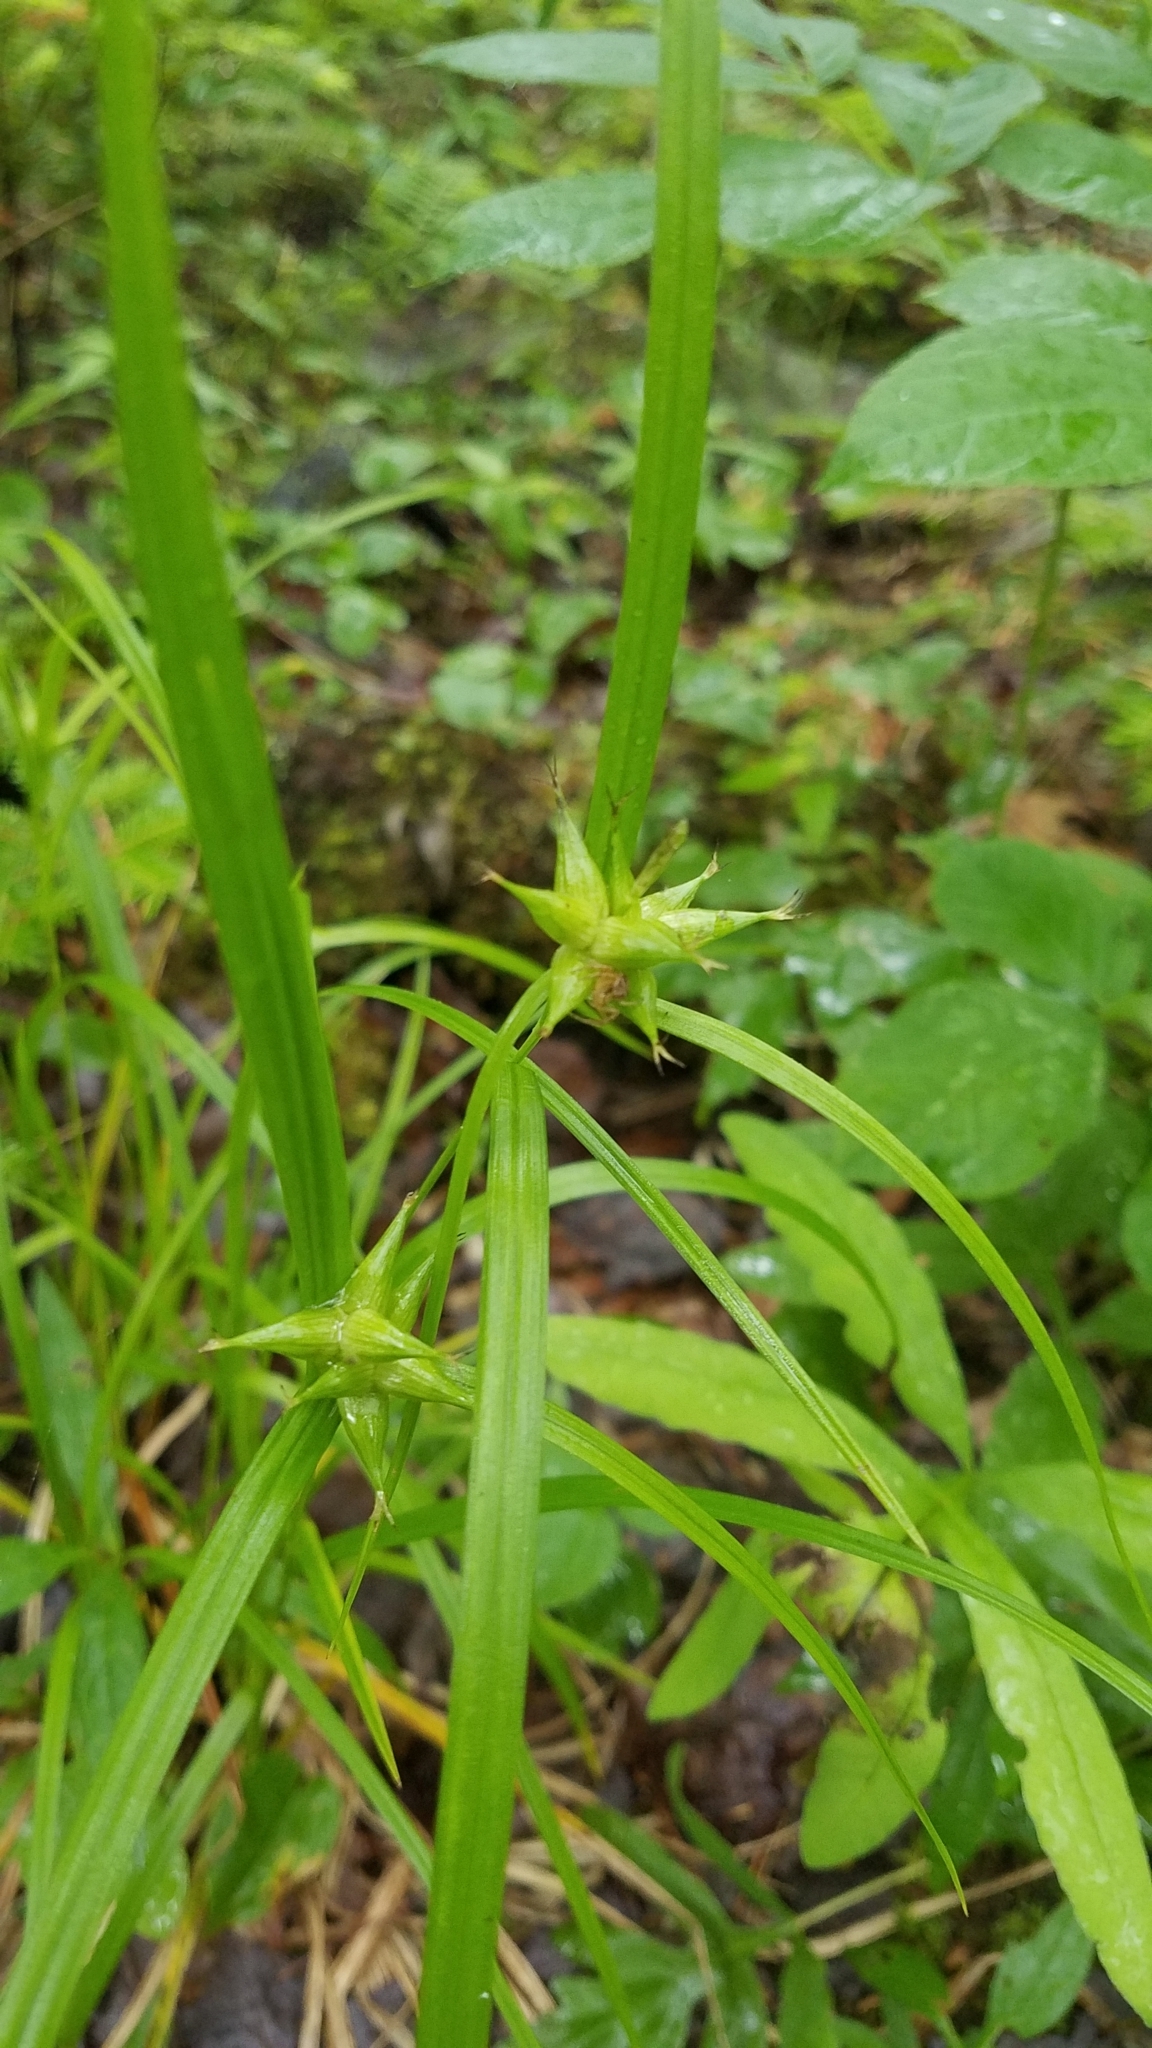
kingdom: Plantae
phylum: Tracheophyta
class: Liliopsida
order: Poales
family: Cyperaceae
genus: Carex
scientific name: Carex intumescens
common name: Greater bladder sedge
